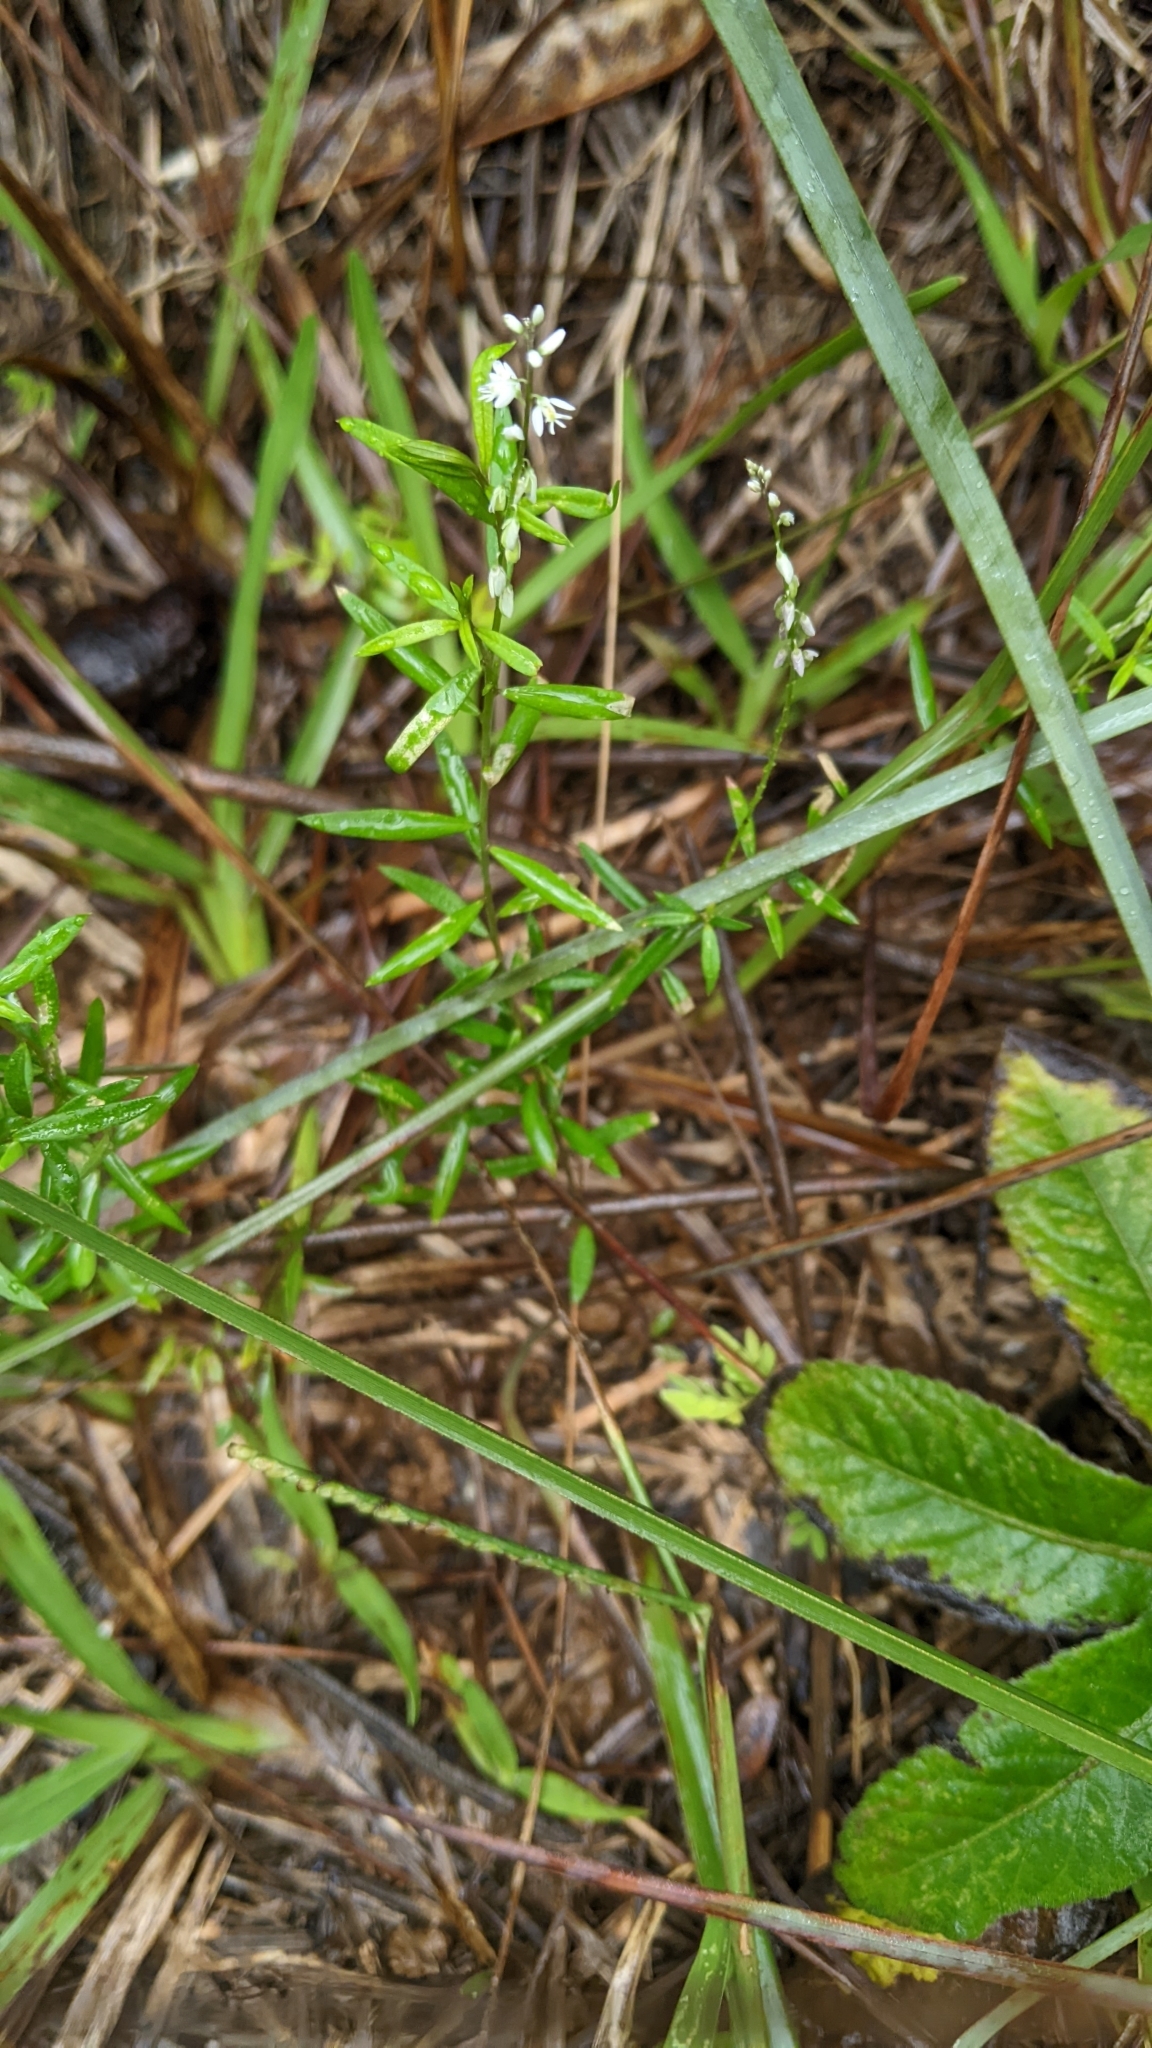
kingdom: Plantae
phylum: Tracheophyta
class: Magnoliopsida
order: Fabales
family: Polygalaceae
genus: Polygala
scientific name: Polygala paniculata
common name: Orosne
